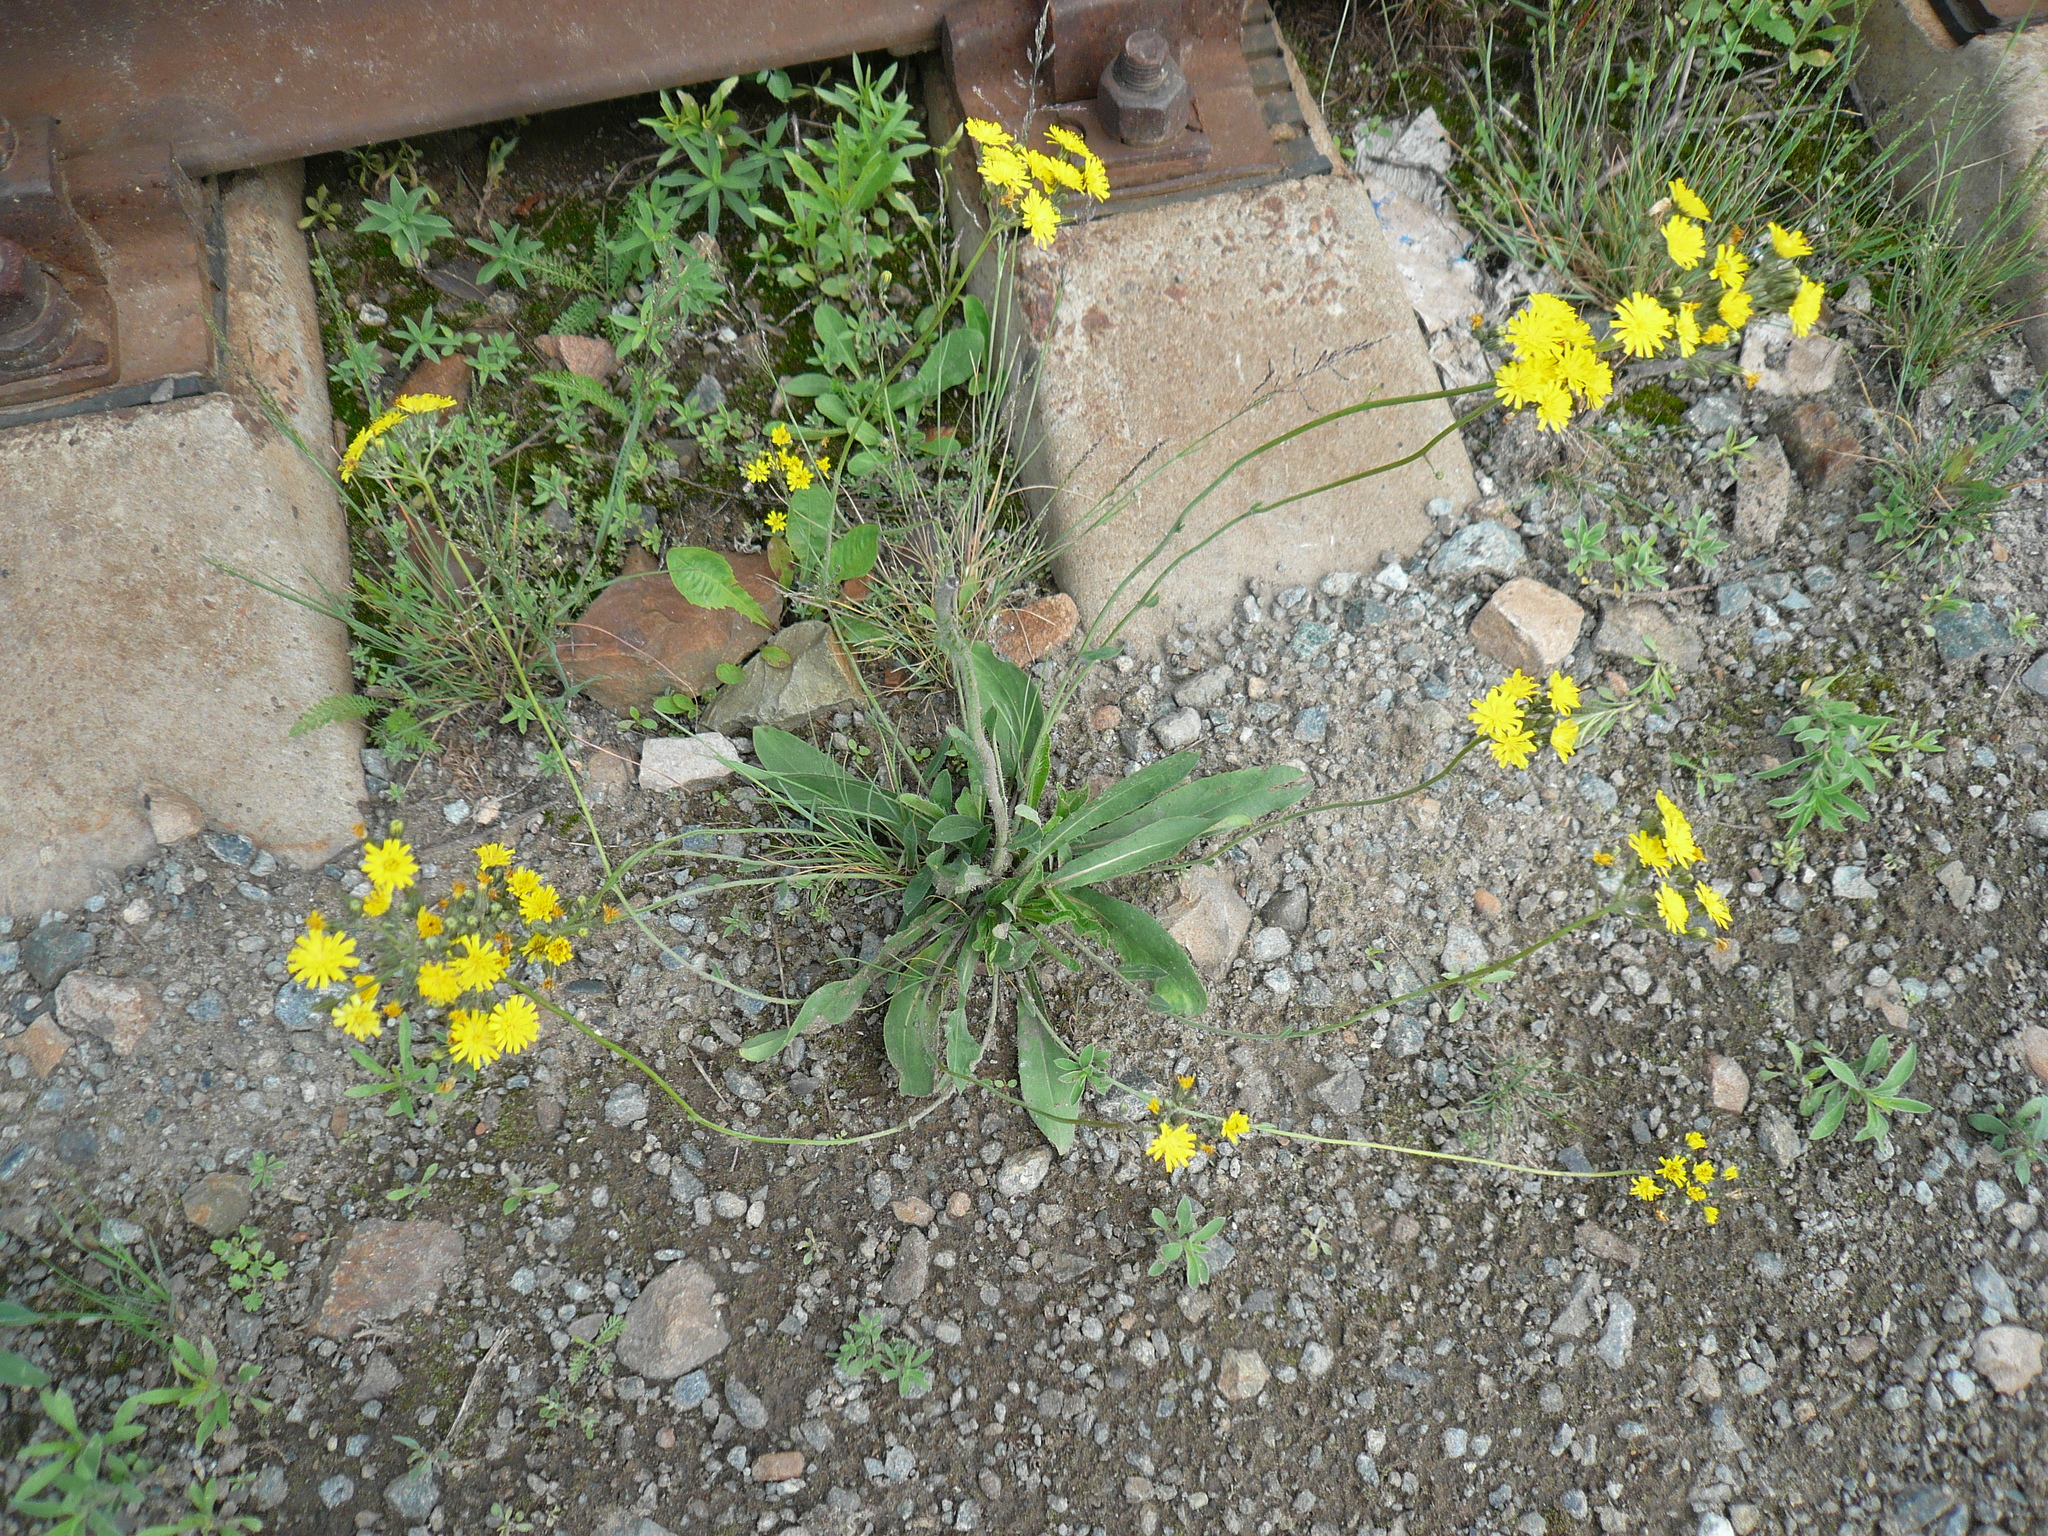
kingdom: Plantae
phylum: Tracheophyta
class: Magnoliopsida
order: Asterales
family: Asteraceae
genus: Pilosella
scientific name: Pilosella
